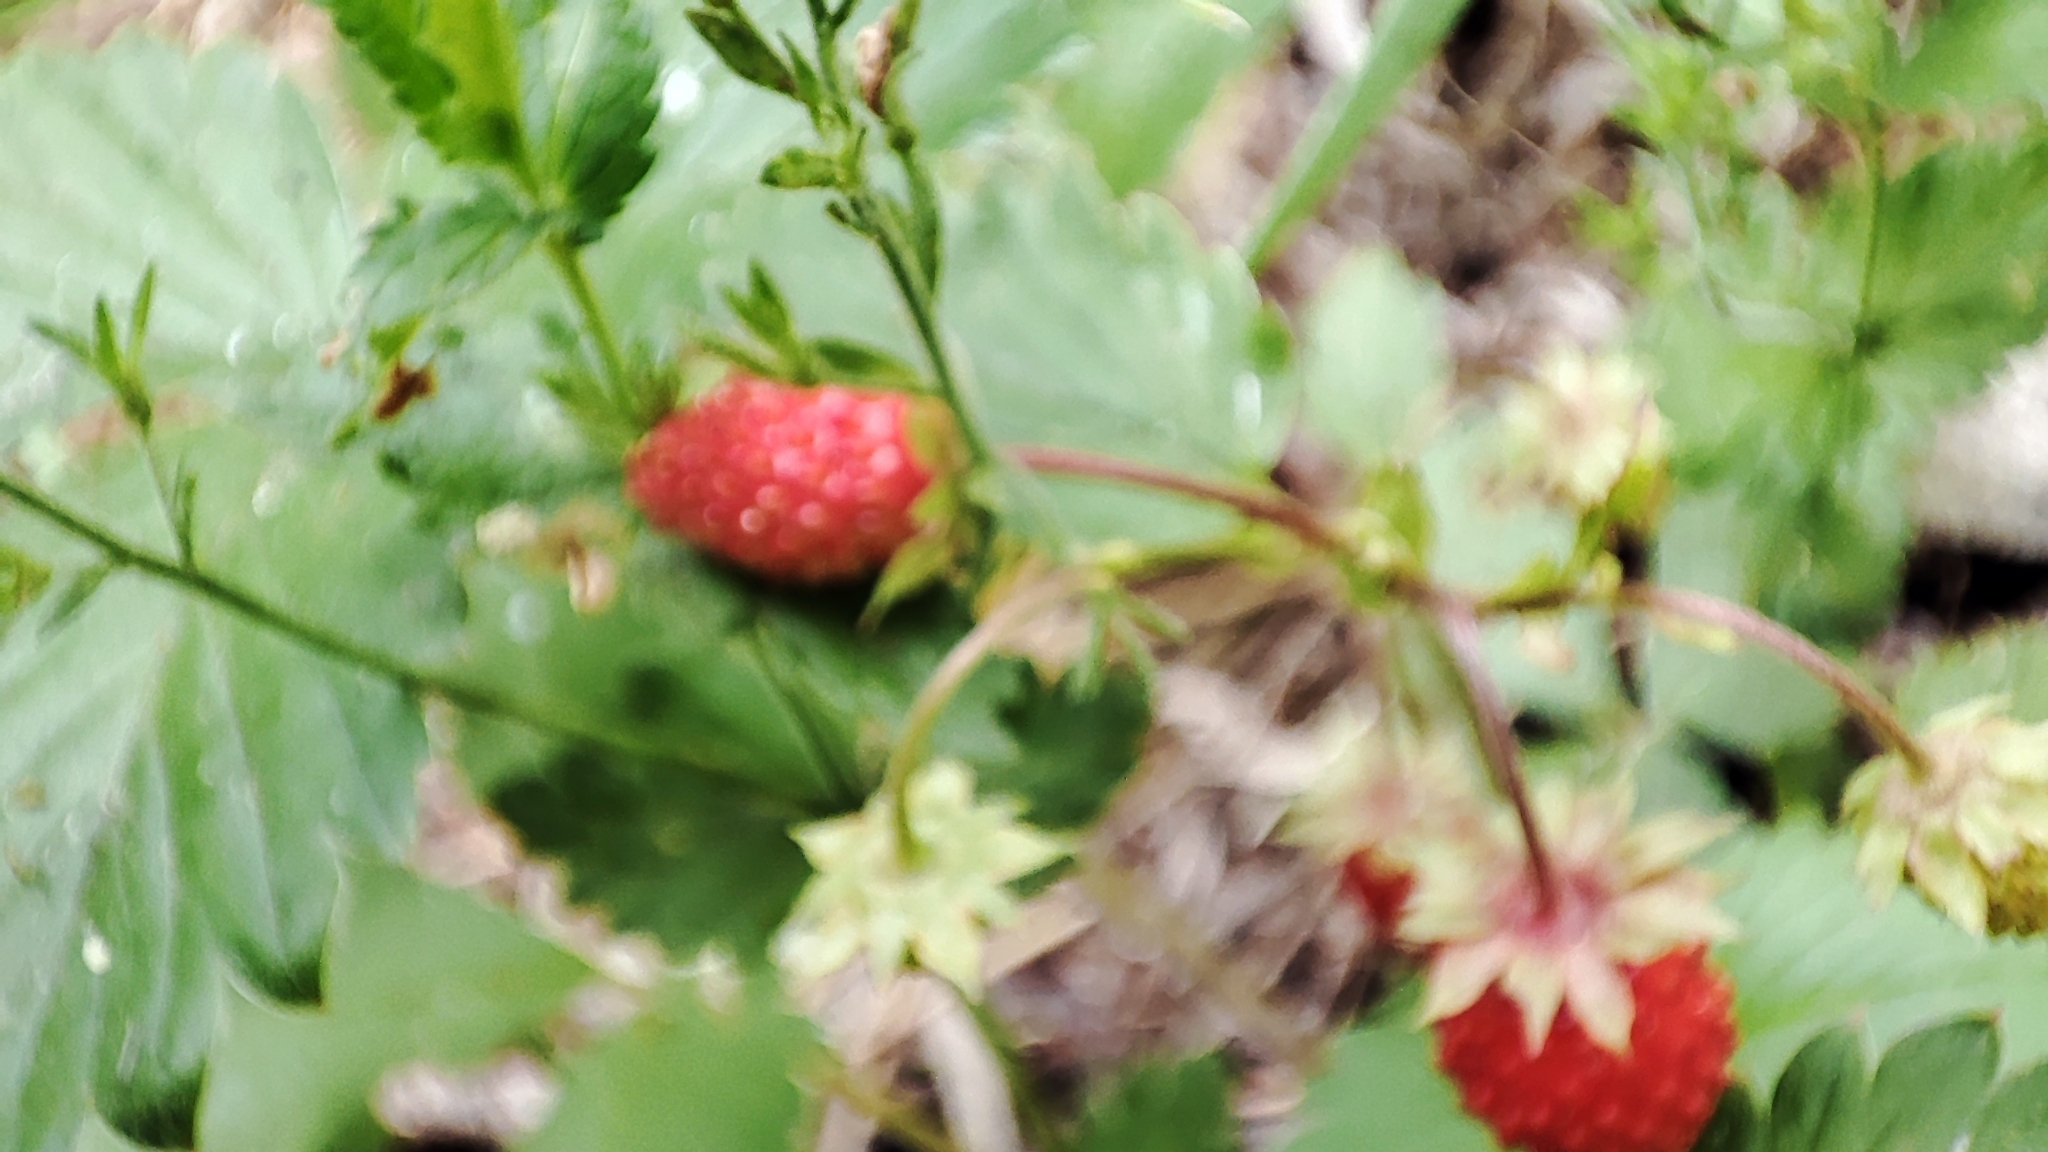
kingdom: Plantae
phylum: Tracheophyta
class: Magnoliopsida
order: Rosales
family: Rosaceae
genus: Fragaria
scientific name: Fragaria vesca
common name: Wild strawberry
